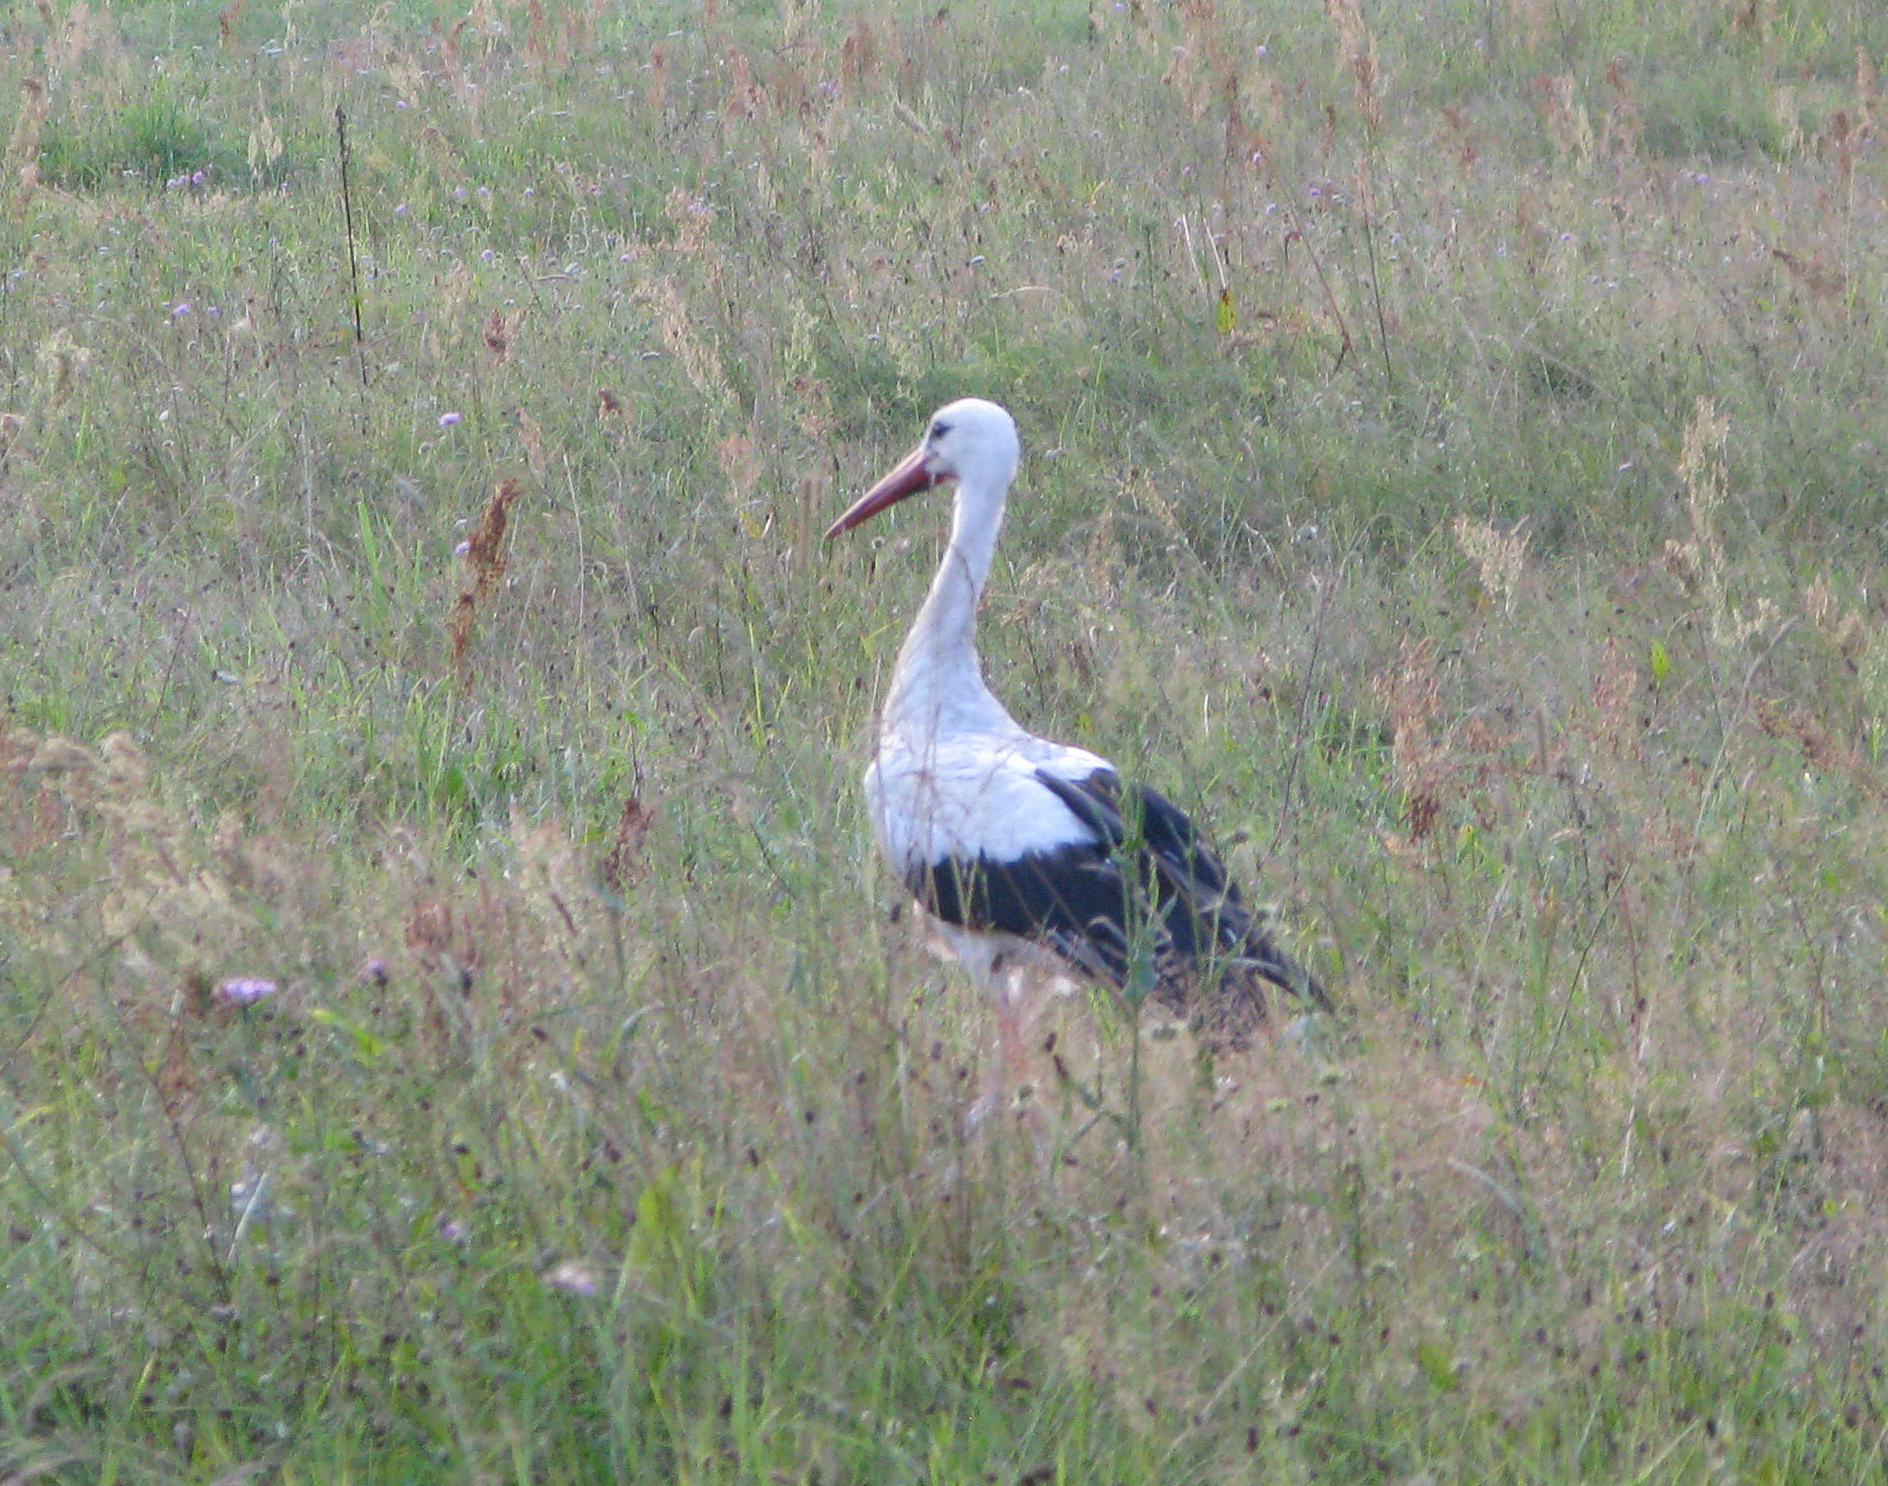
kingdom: Animalia
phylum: Chordata
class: Aves
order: Ciconiiformes
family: Ciconiidae
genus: Ciconia
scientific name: Ciconia ciconia
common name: White stork
